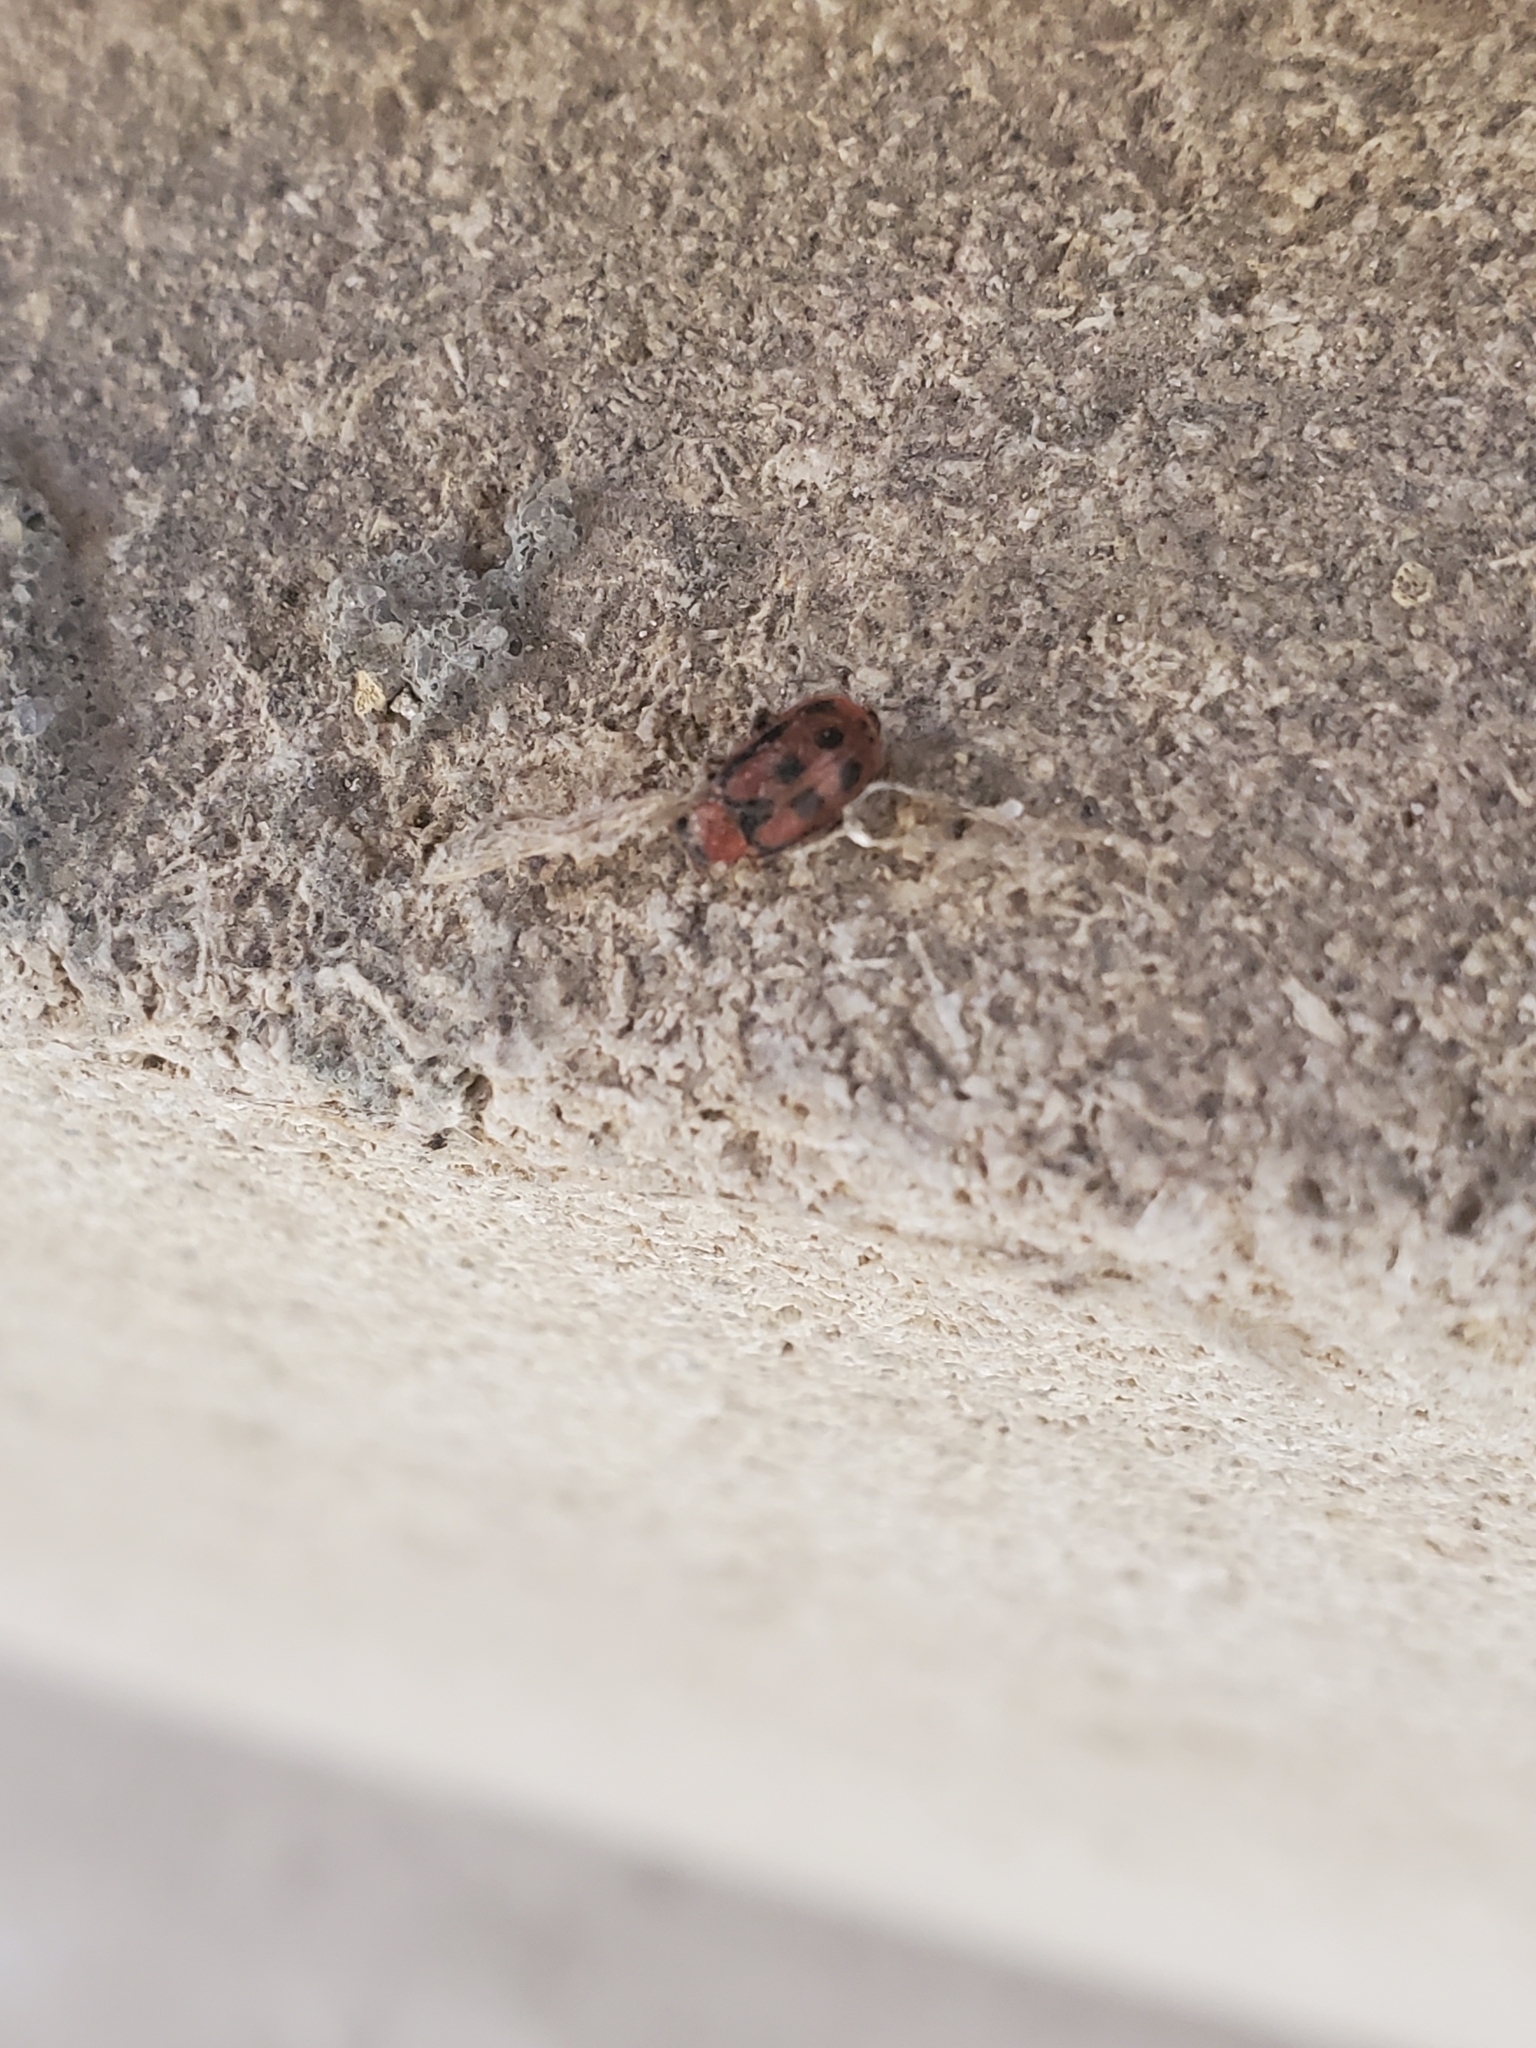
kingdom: Animalia
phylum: Arthropoda
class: Insecta
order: Coleoptera
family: Chrysomelidae
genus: Cerotoma
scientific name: Cerotoma trifurcata
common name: Bean leaf beetle
